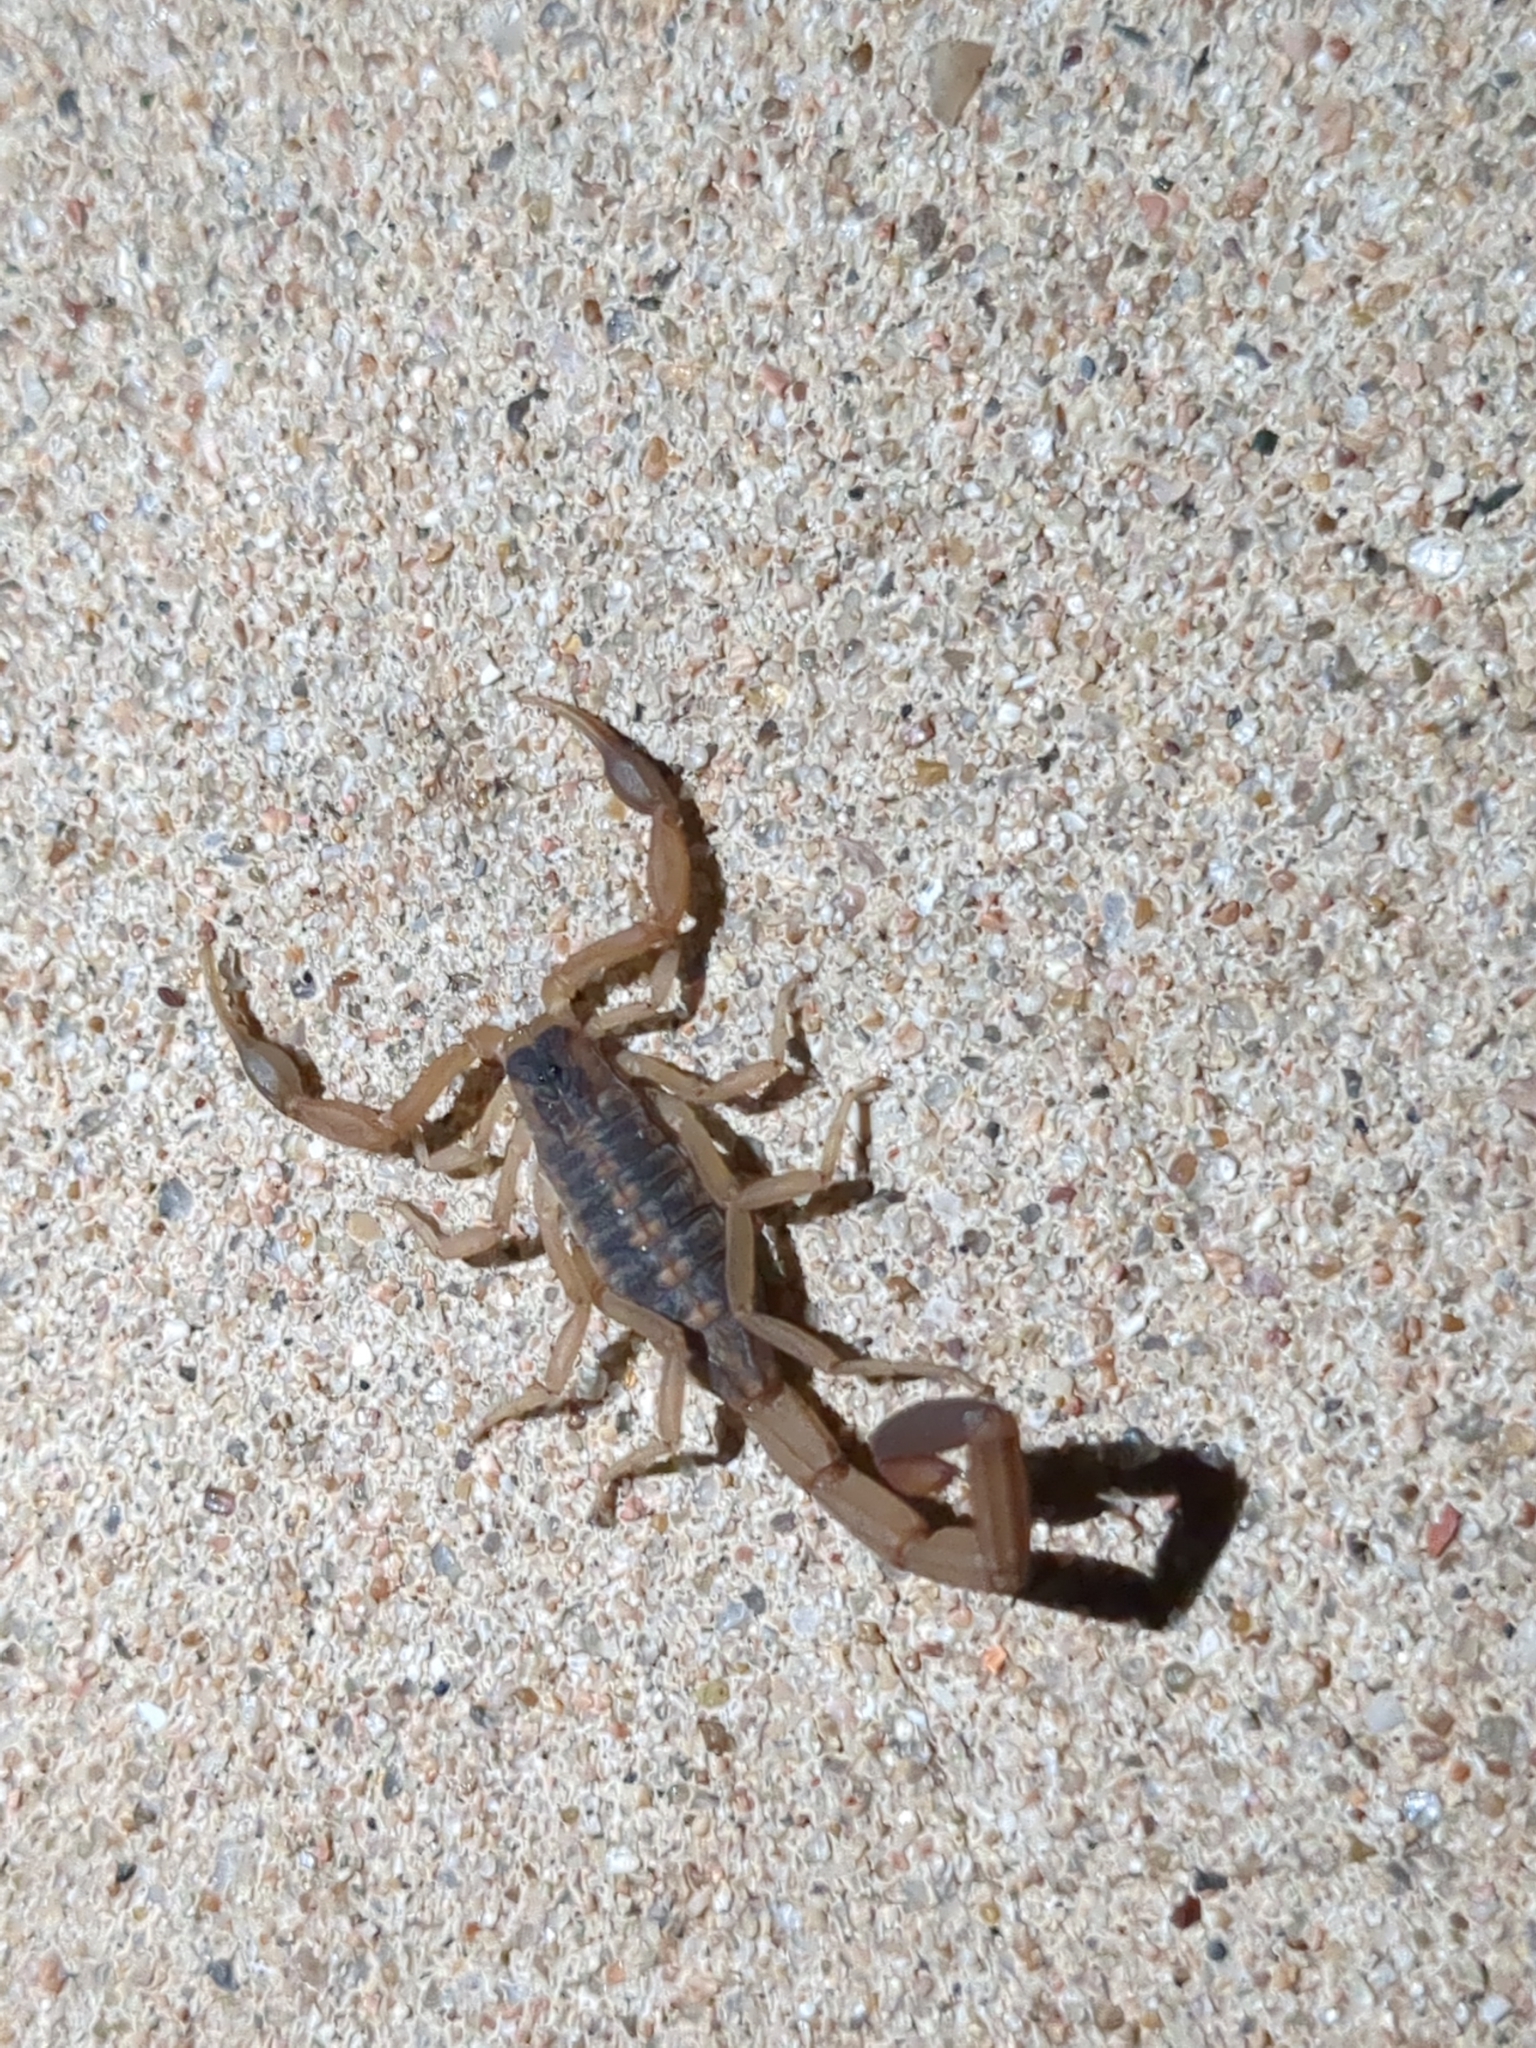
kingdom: Animalia
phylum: Arthropoda
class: Arachnida
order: Scorpiones
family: Buthidae
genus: Centruroides
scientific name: Centruroides vittatus
